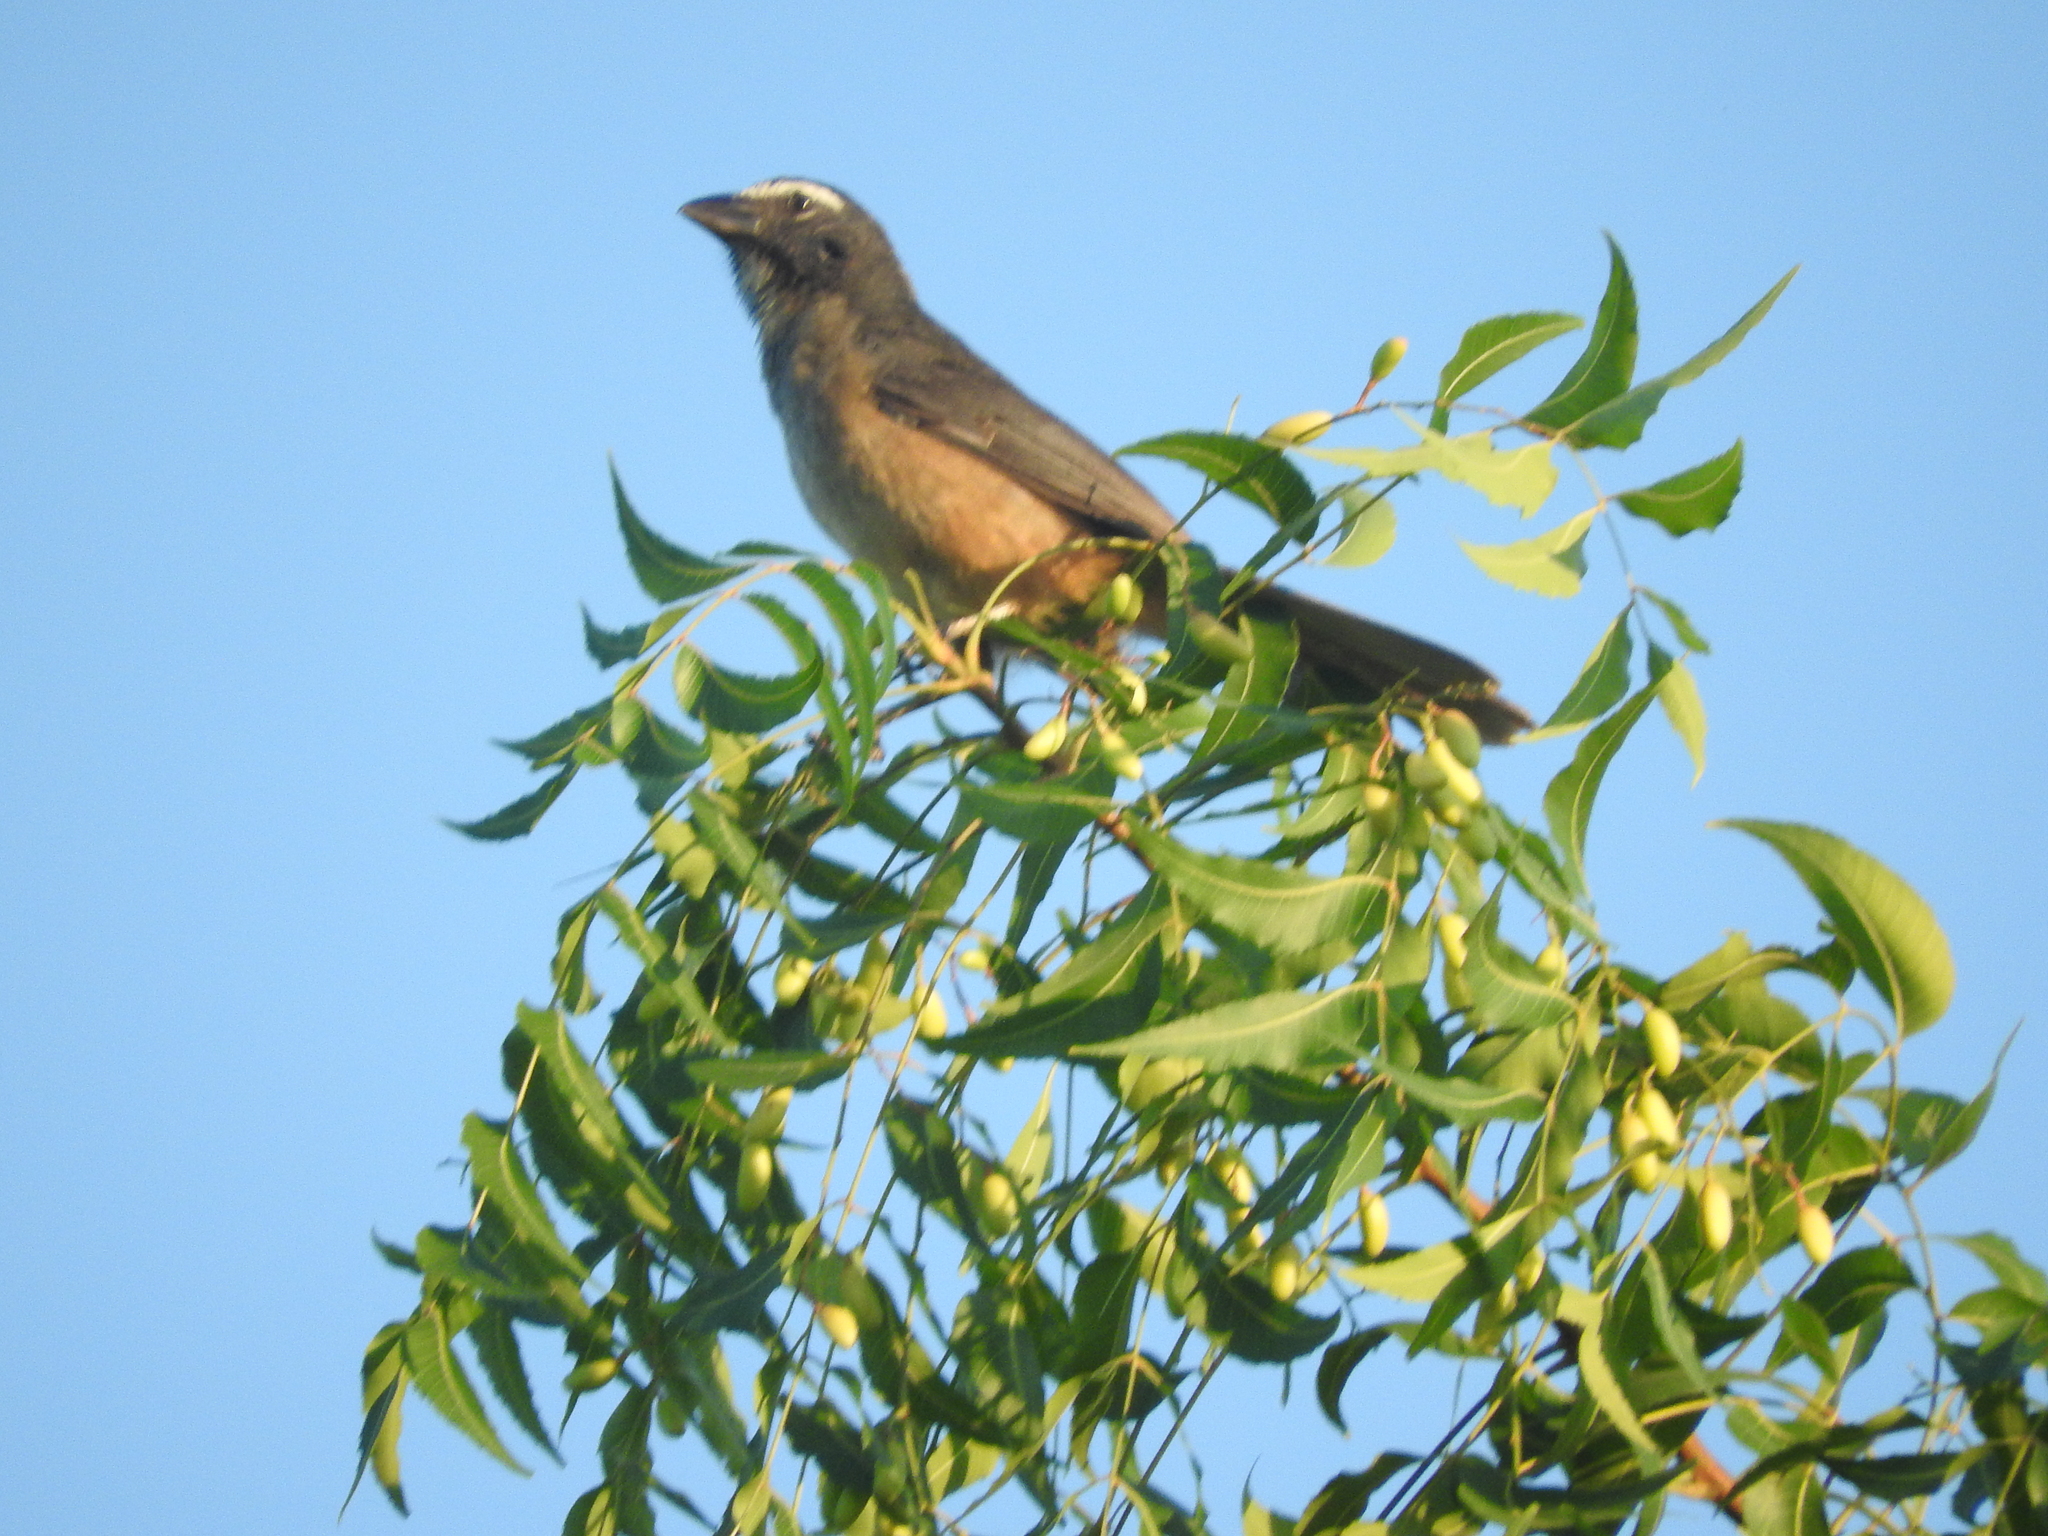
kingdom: Animalia
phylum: Chordata
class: Aves
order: Passeriformes
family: Thraupidae
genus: Saltator
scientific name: Saltator grandis
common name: Cinnamon-bellied saltator
